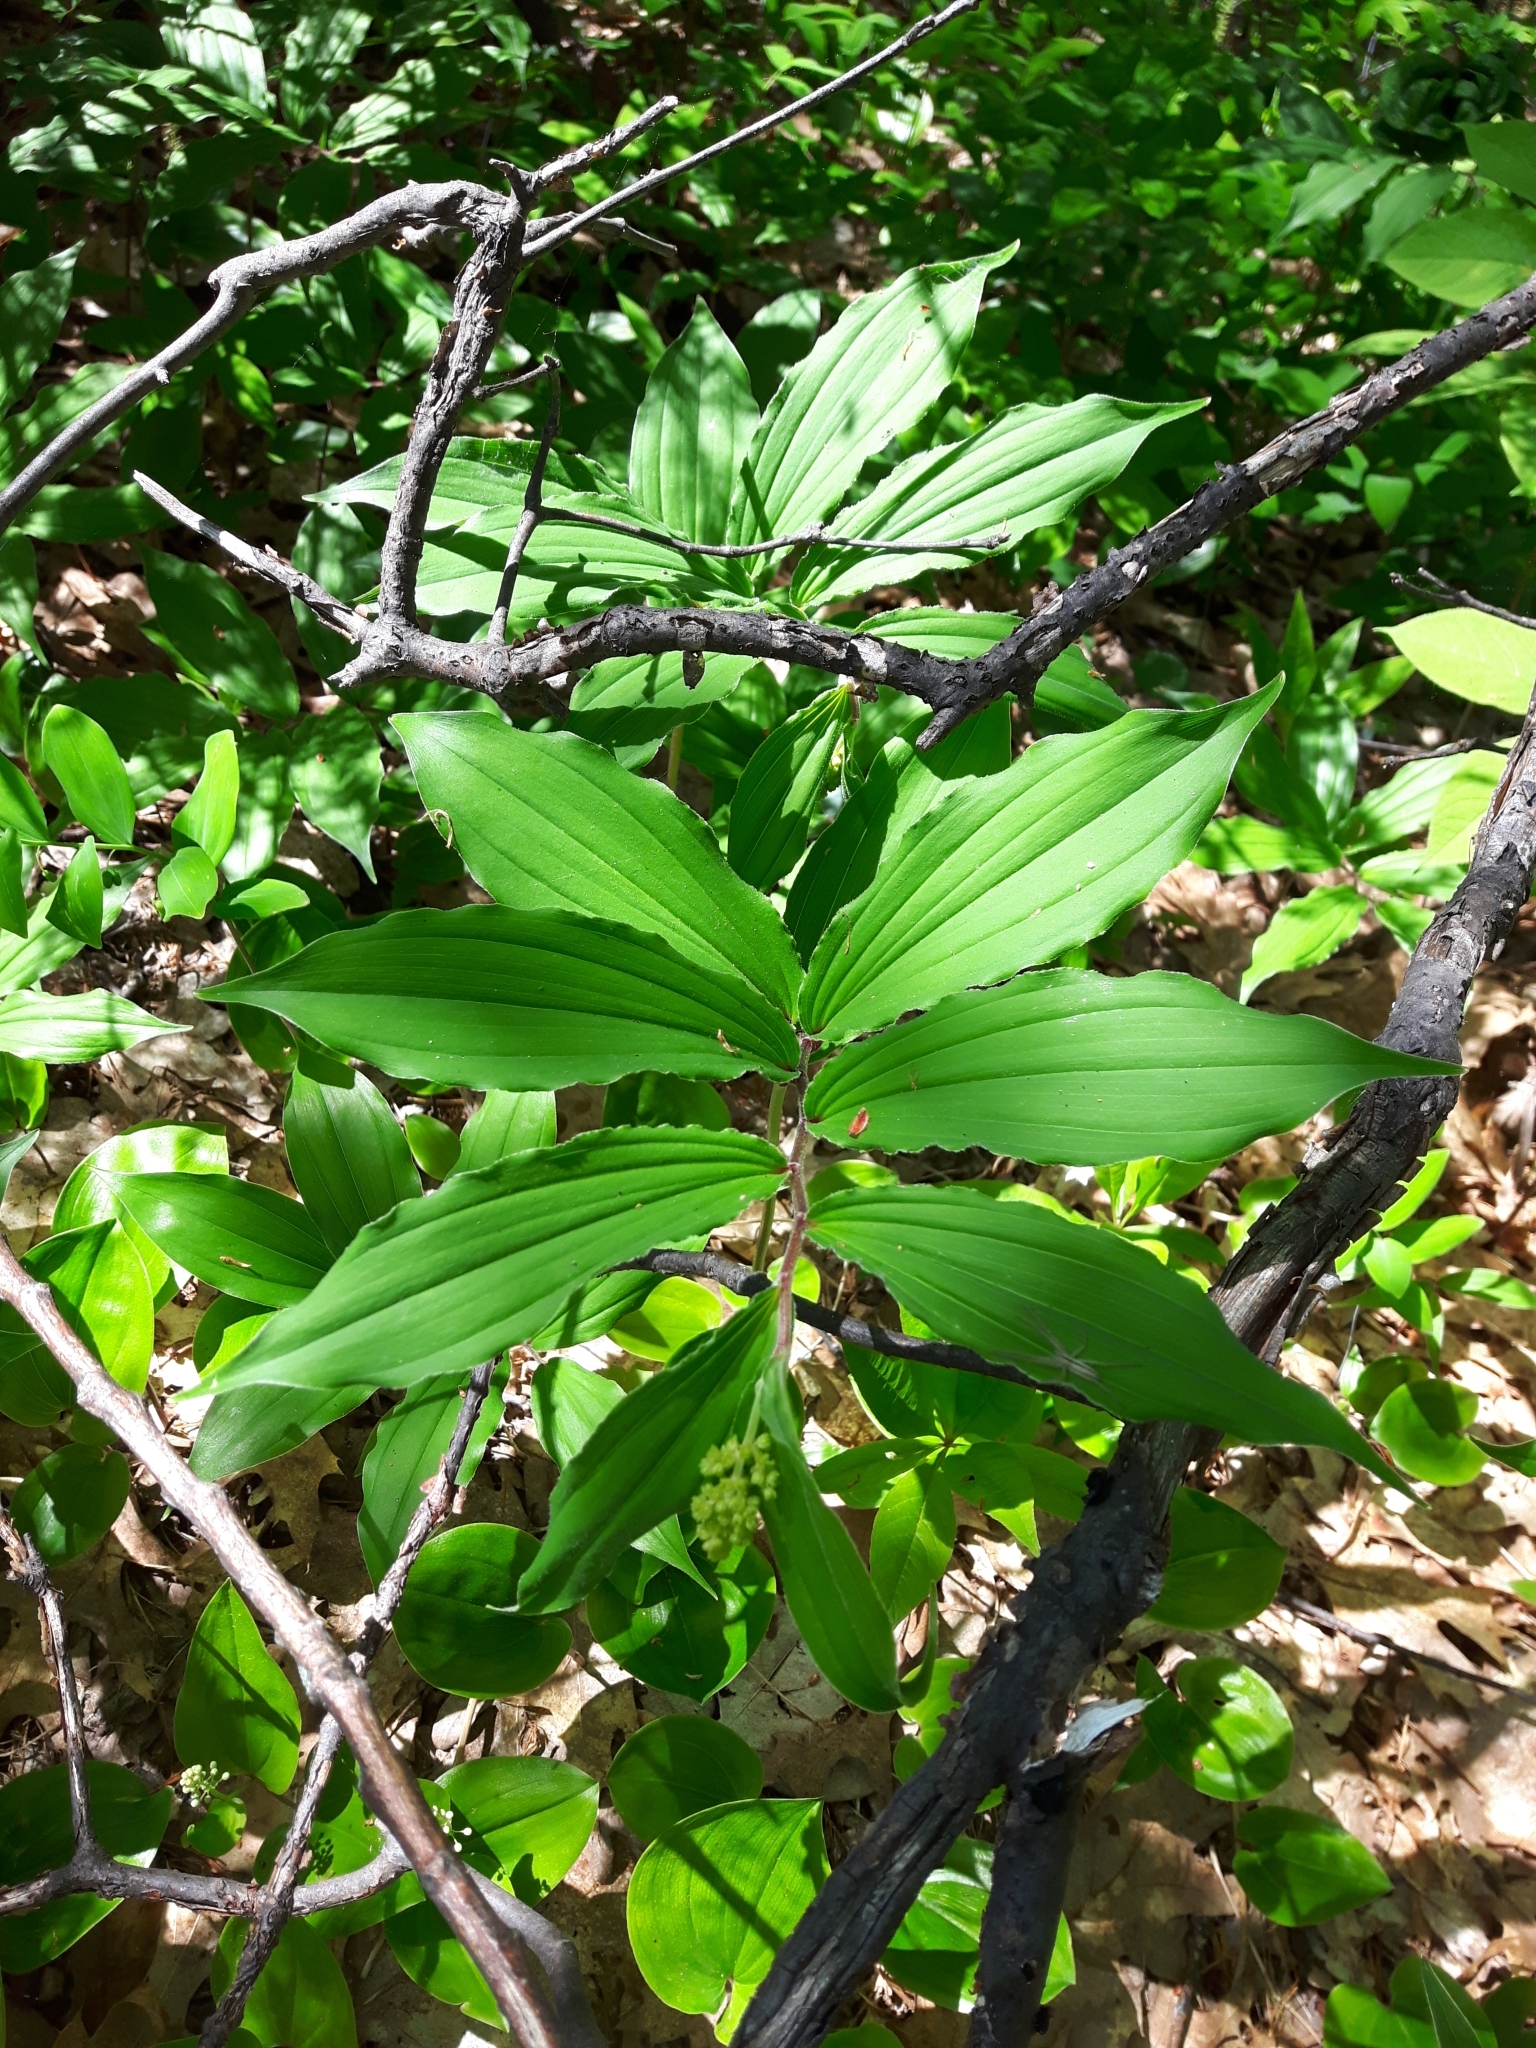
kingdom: Plantae
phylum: Tracheophyta
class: Liliopsida
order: Asparagales
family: Asparagaceae
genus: Maianthemum
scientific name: Maianthemum racemosum
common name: False spikenard
